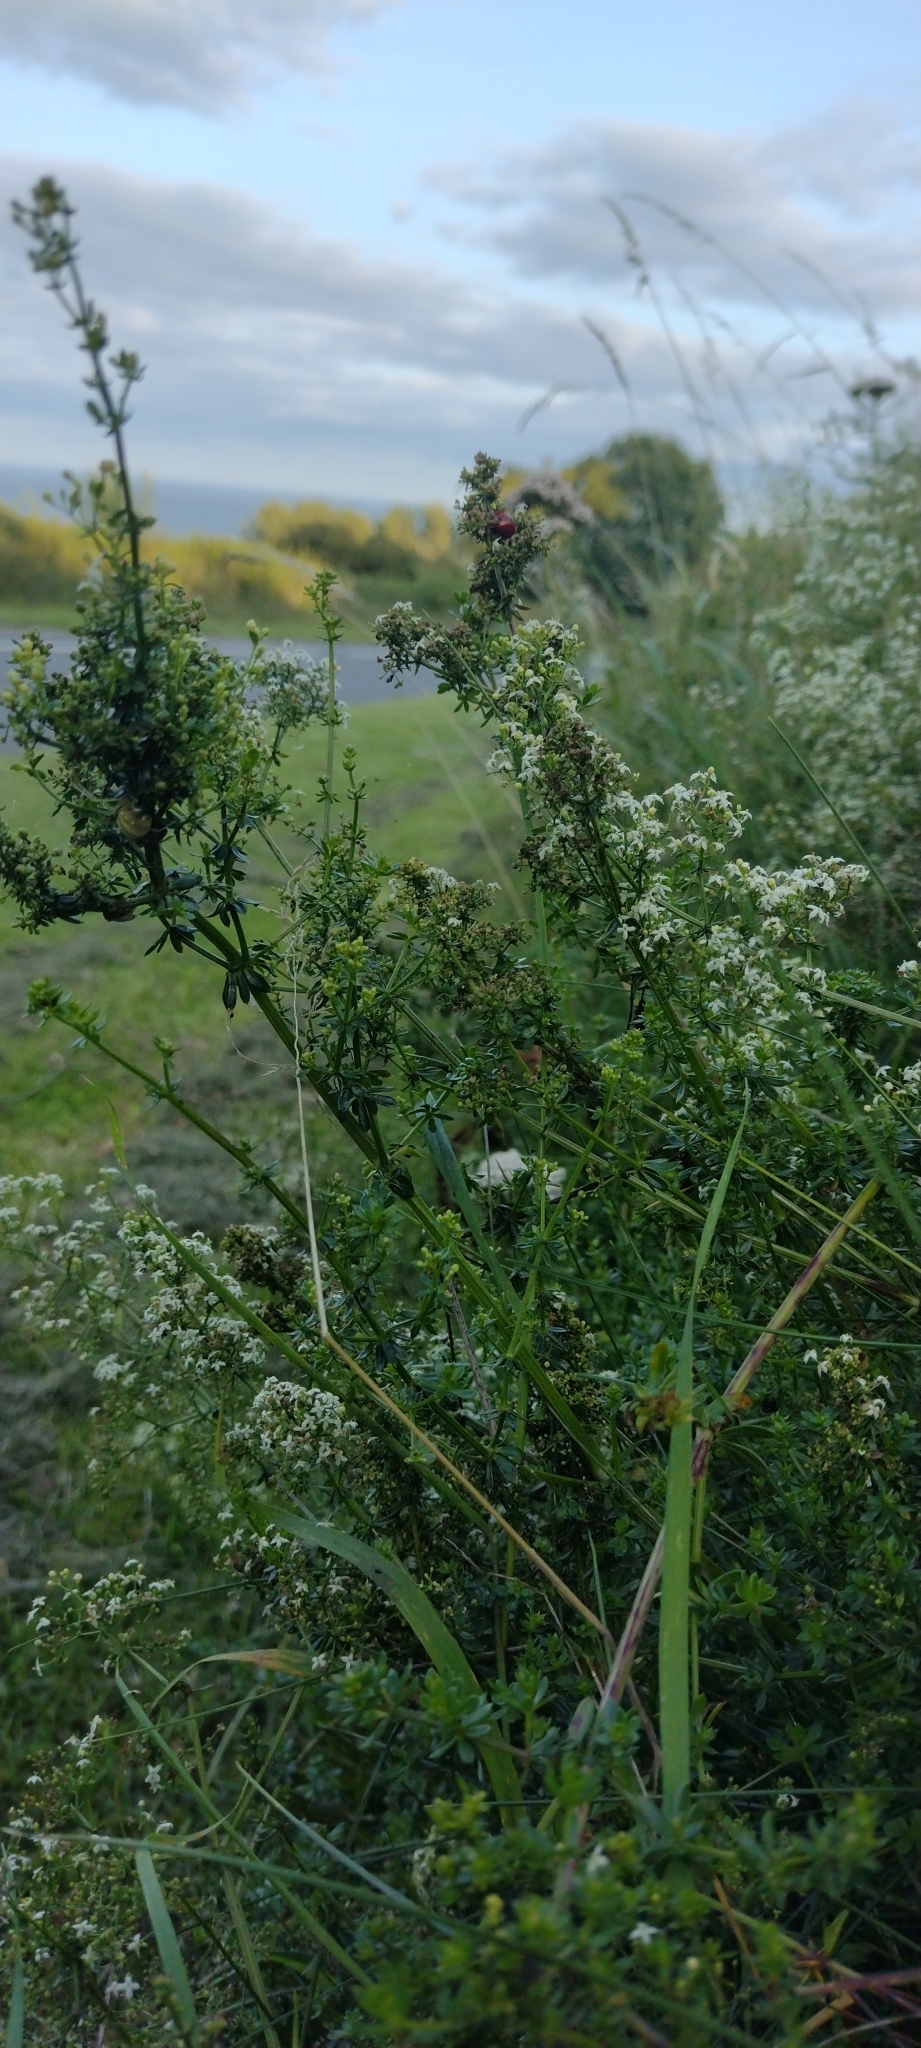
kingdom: Plantae
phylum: Tracheophyta
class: Magnoliopsida
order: Gentianales
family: Rubiaceae
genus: Galium
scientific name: Galium album
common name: White bedstraw
